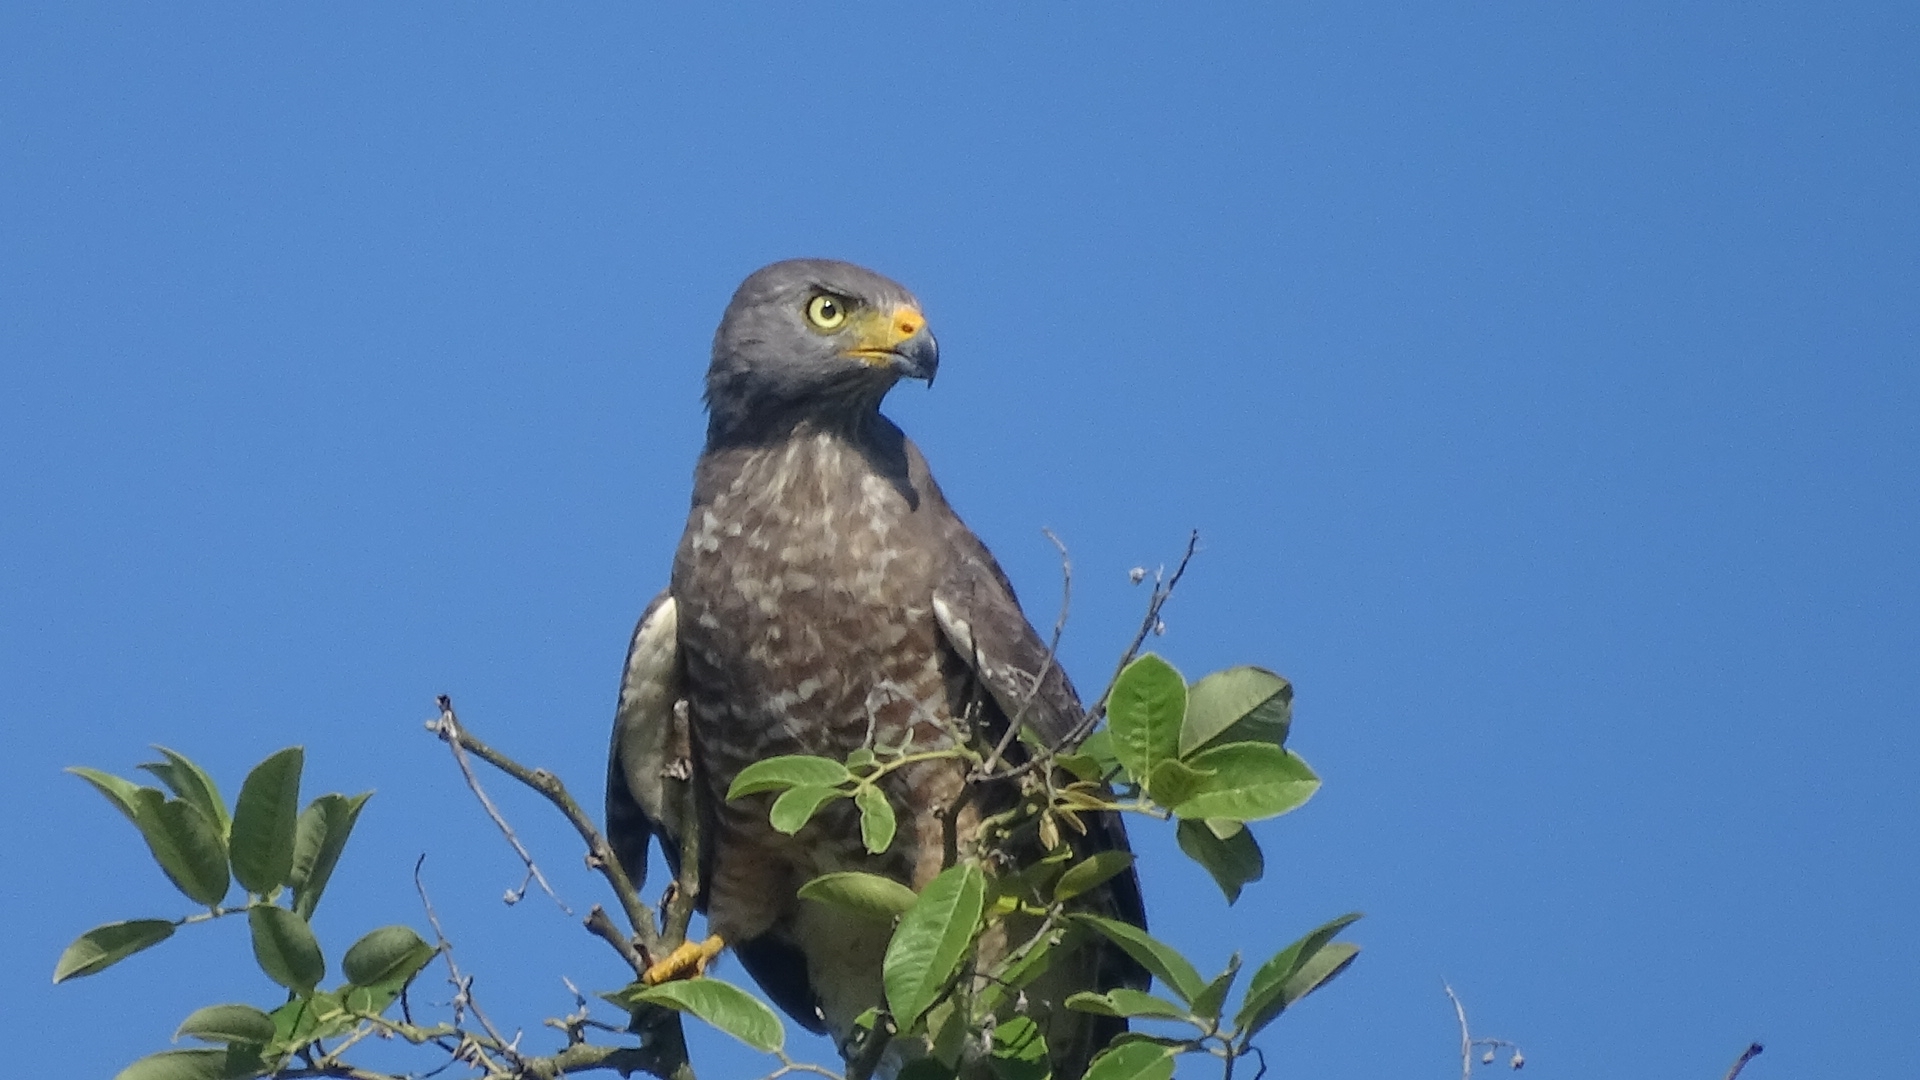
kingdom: Animalia
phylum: Chordata
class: Aves
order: Accipitriformes
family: Accipitridae
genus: Rupornis
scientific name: Rupornis magnirostris
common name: Roadside hawk
